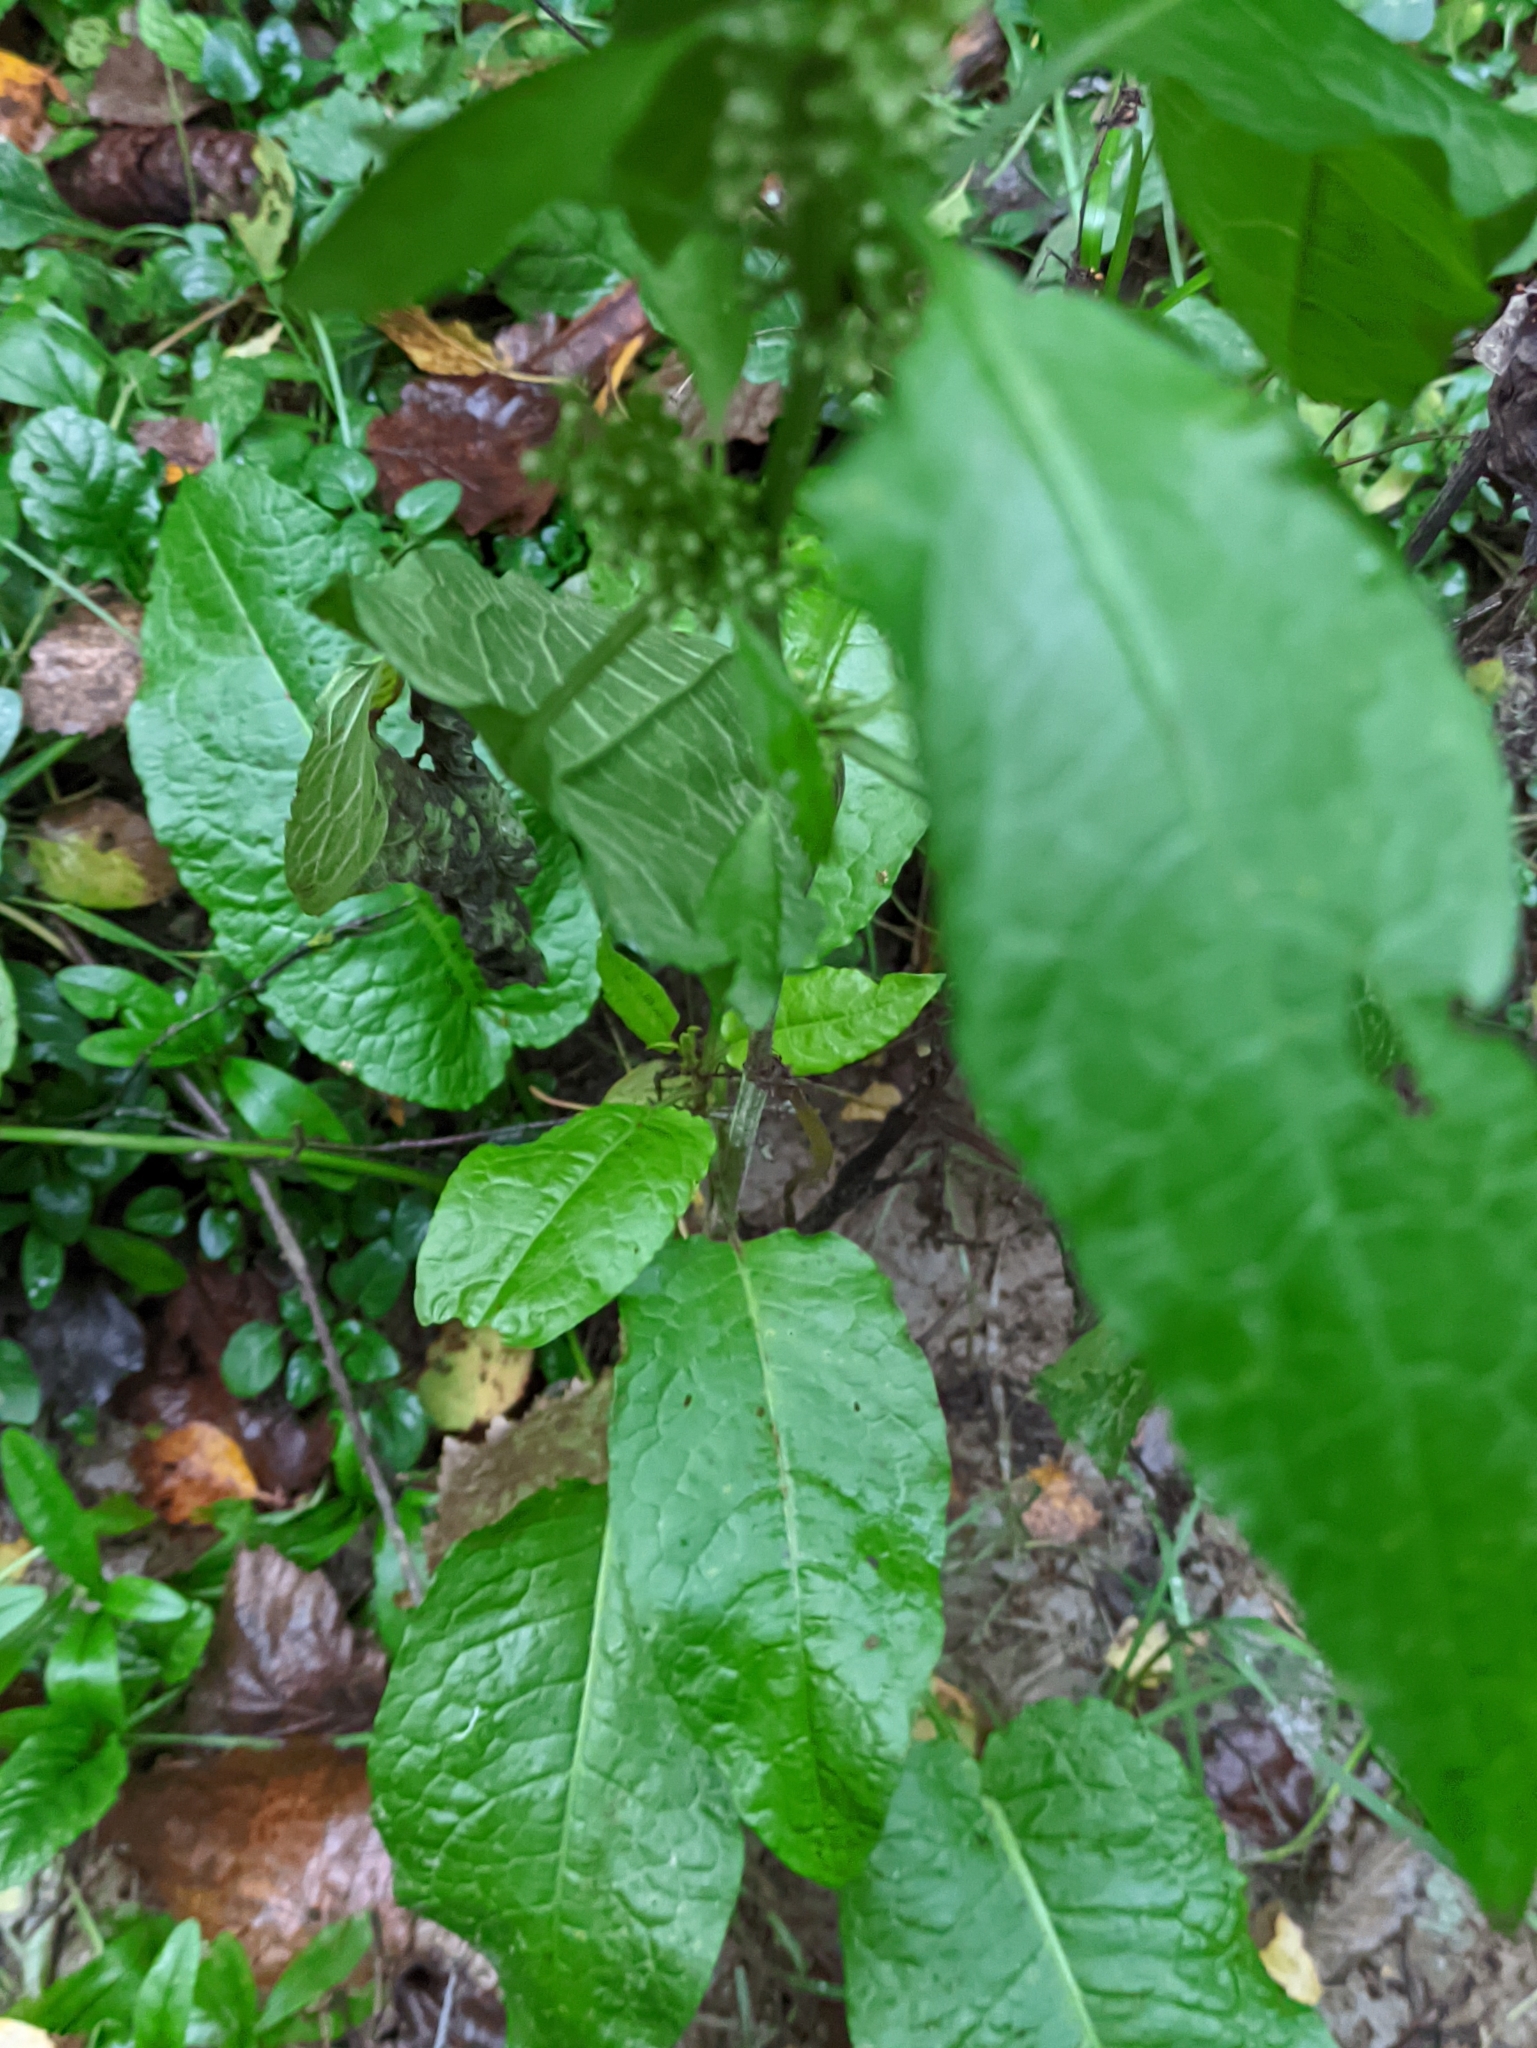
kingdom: Plantae
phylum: Tracheophyta
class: Magnoliopsida
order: Caryophyllales
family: Polygonaceae
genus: Rumex
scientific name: Rumex obtusifolius
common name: Bitter dock
